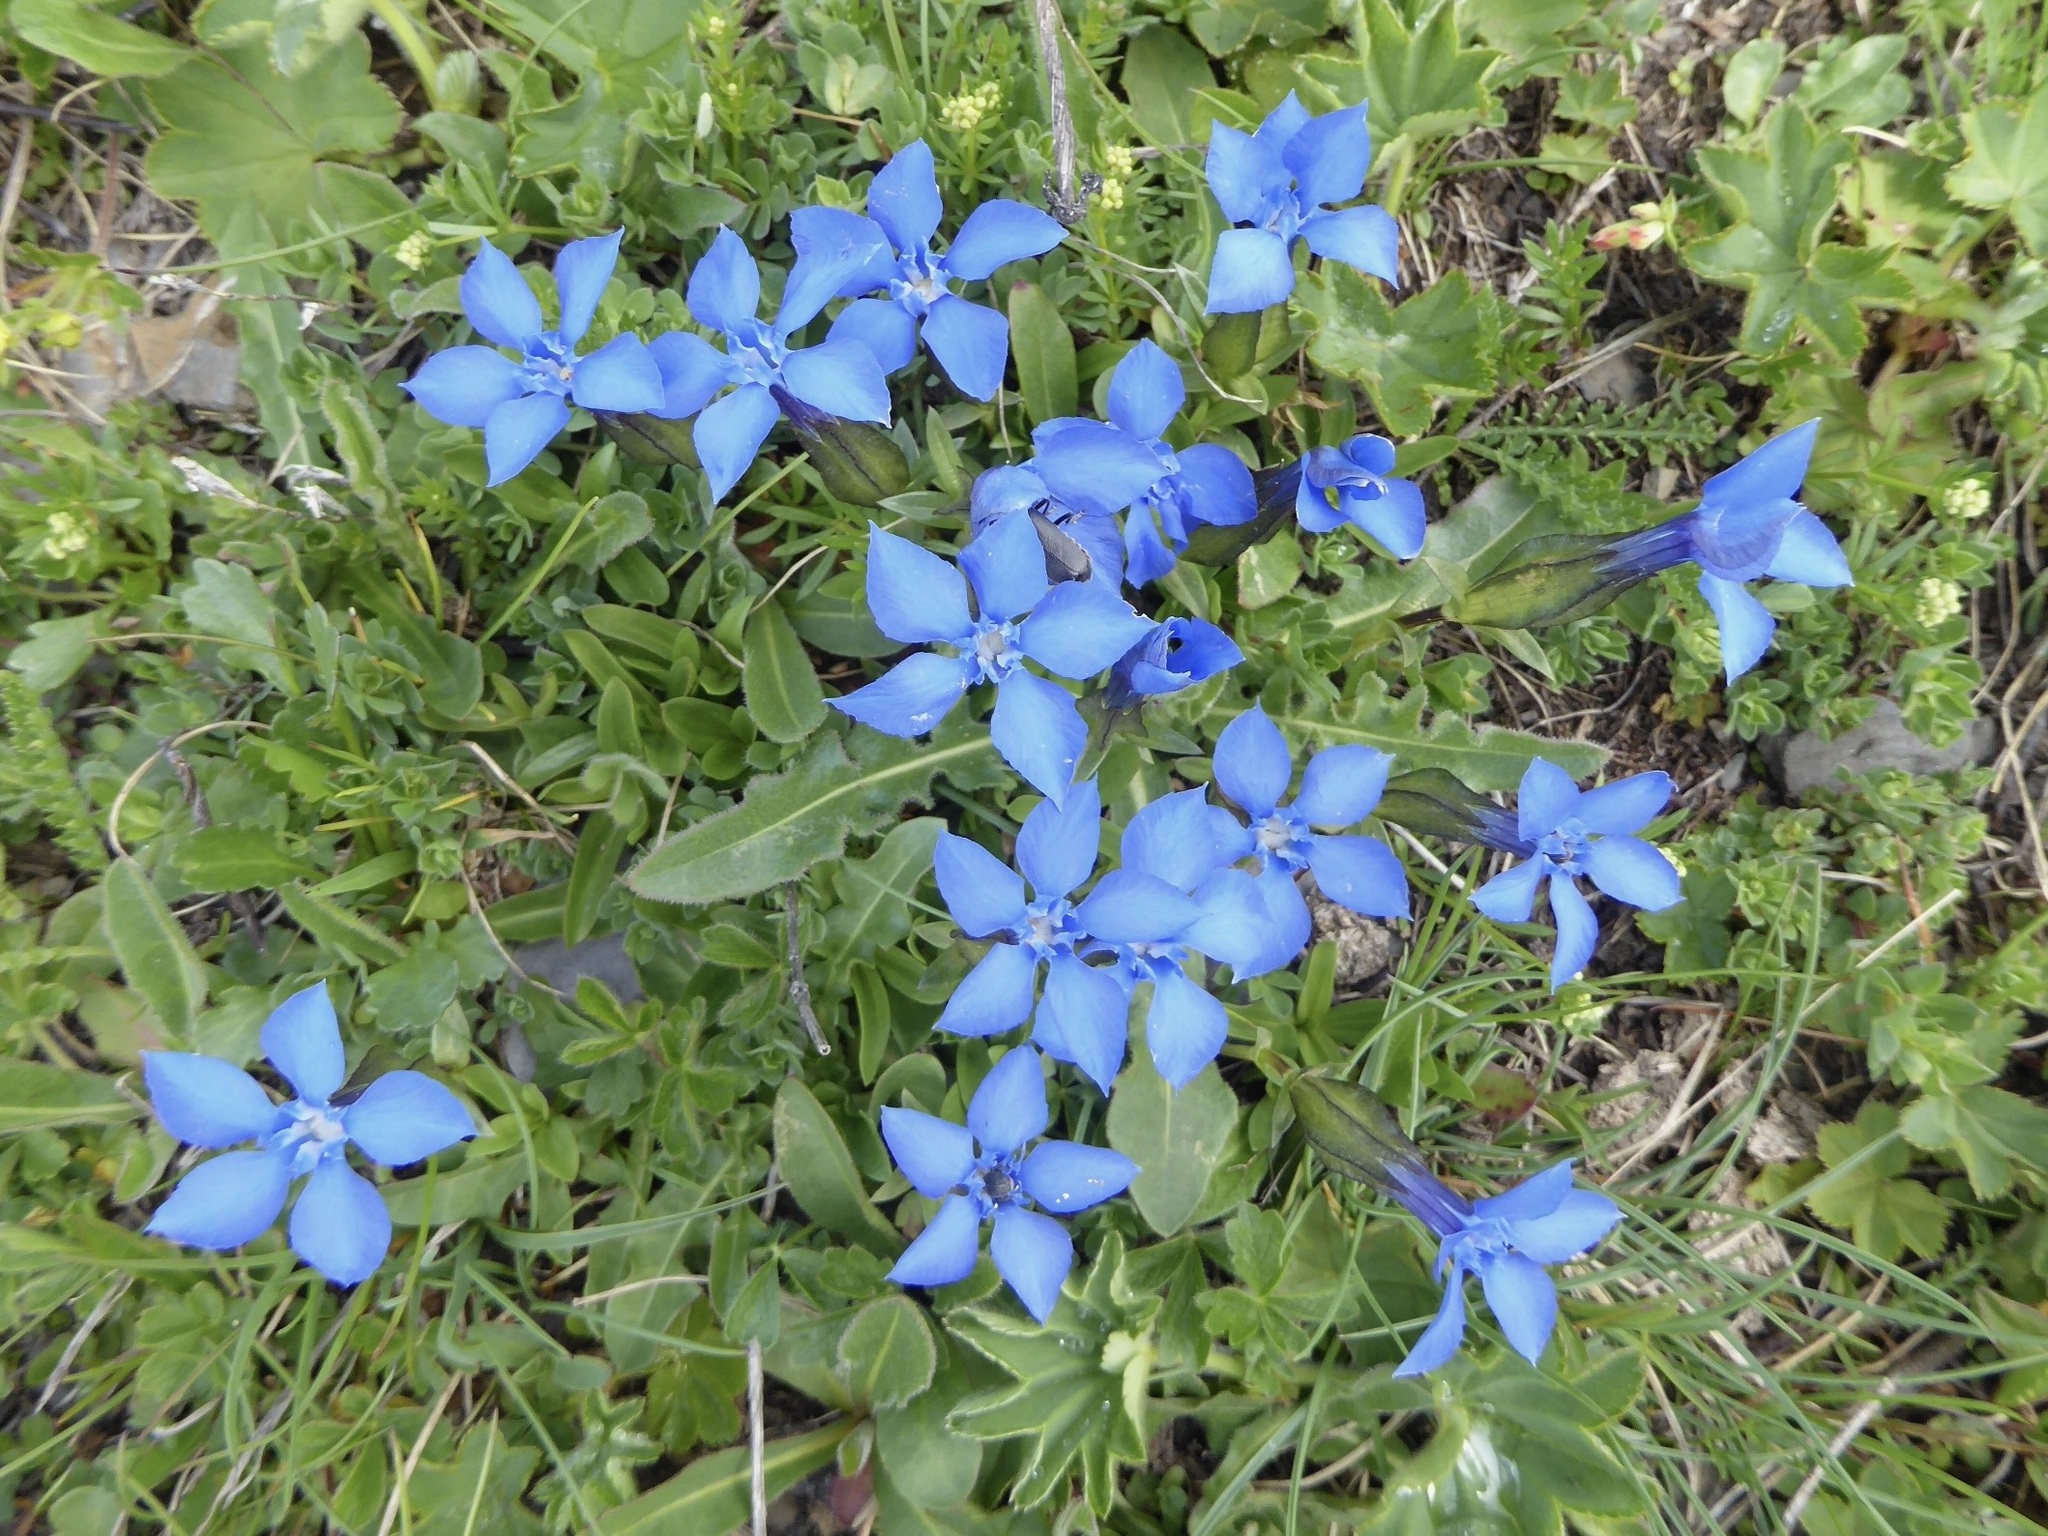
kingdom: Plantae
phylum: Tracheophyta
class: Magnoliopsida
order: Gentianales
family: Gentianaceae
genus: Gentiana
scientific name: Gentiana verna
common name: Spring gentian
